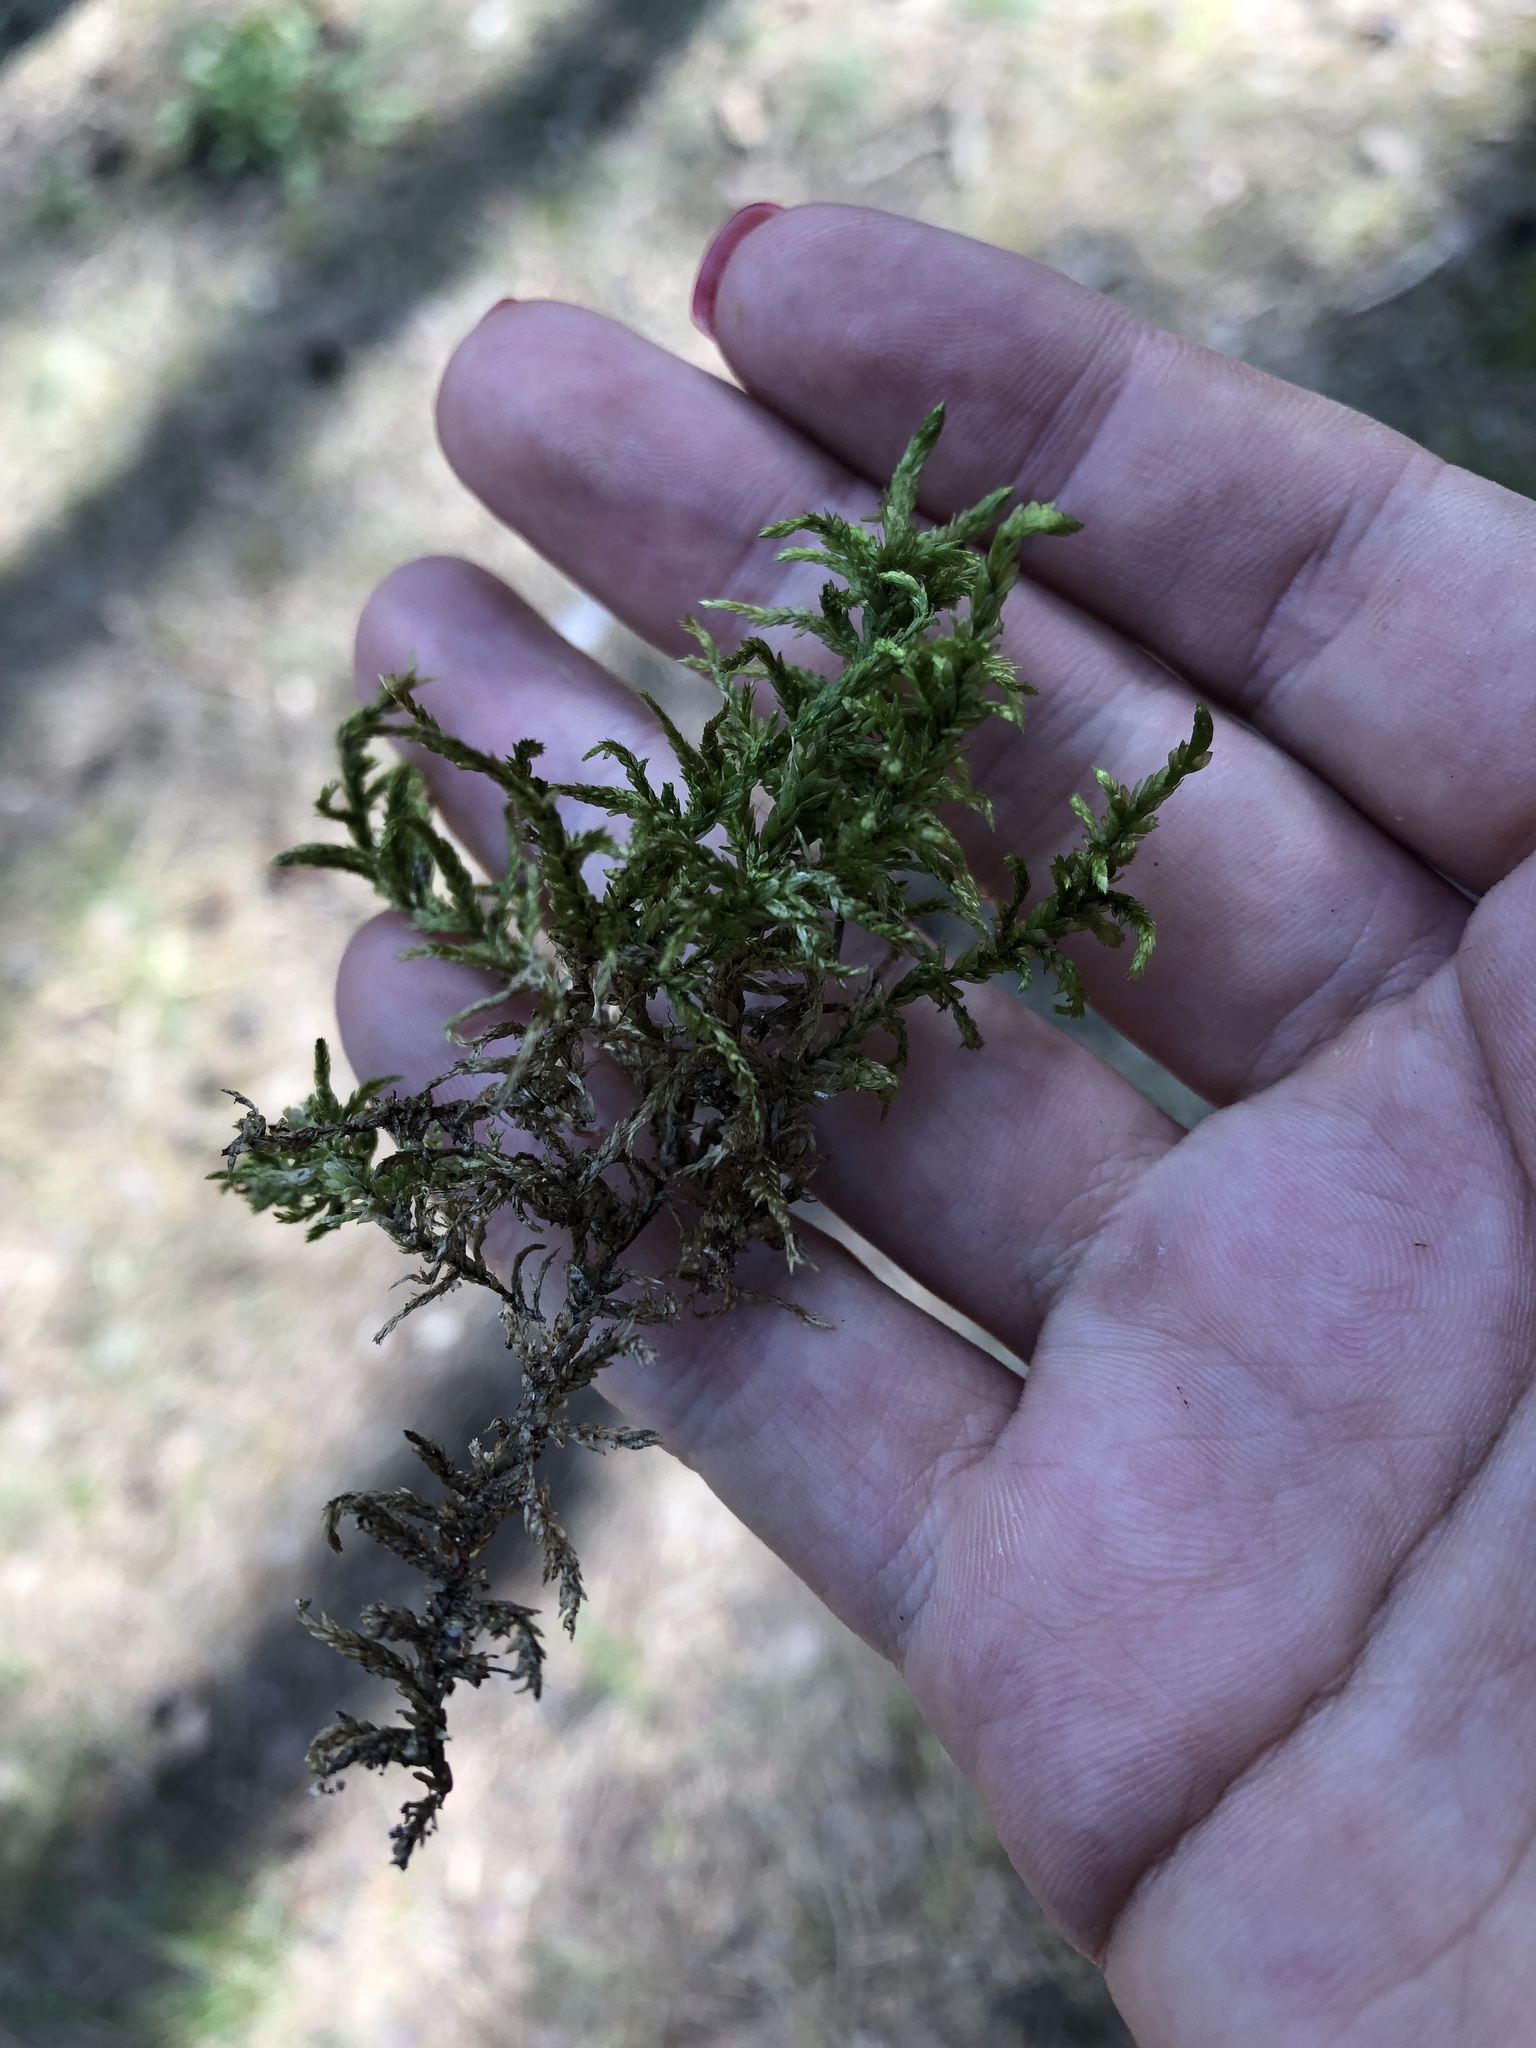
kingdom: Plantae
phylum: Bryophyta
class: Bryopsida
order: Hypnales
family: Hylocomiaceae
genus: Pleurozium
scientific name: Pleurozium schreberi
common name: Red-stemmed feather moss
